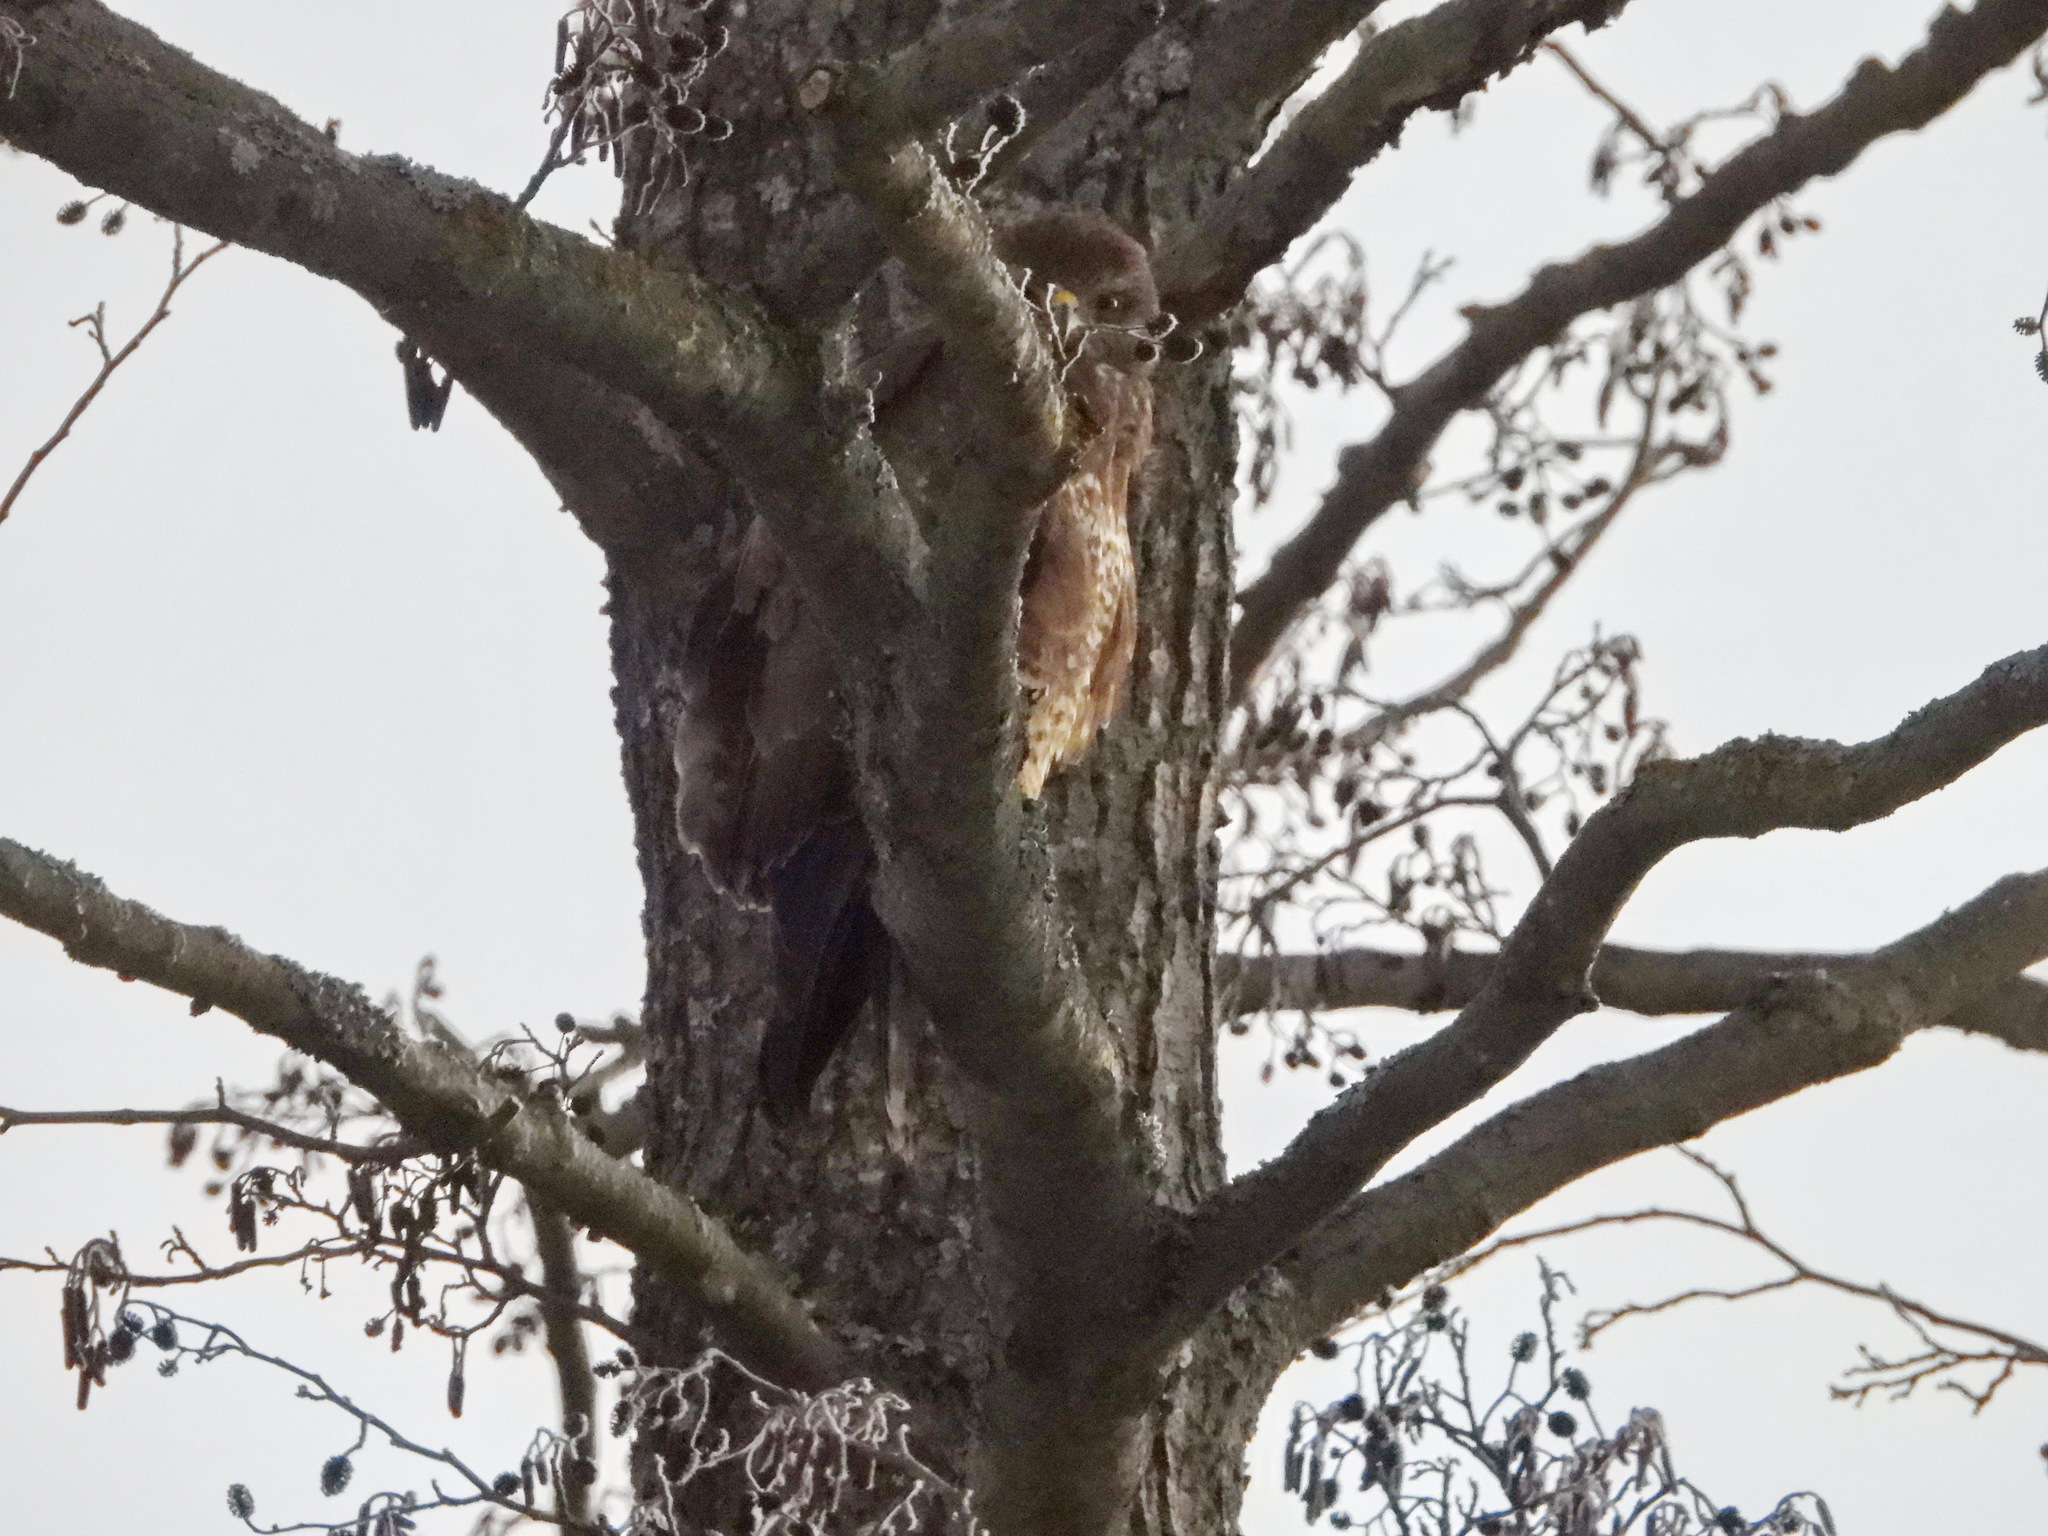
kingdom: Animalia
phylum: Chordata
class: Aves
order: Accipitriformes
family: Accipitridae
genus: Buteo
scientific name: Buteo buteo
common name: Common buzzard
